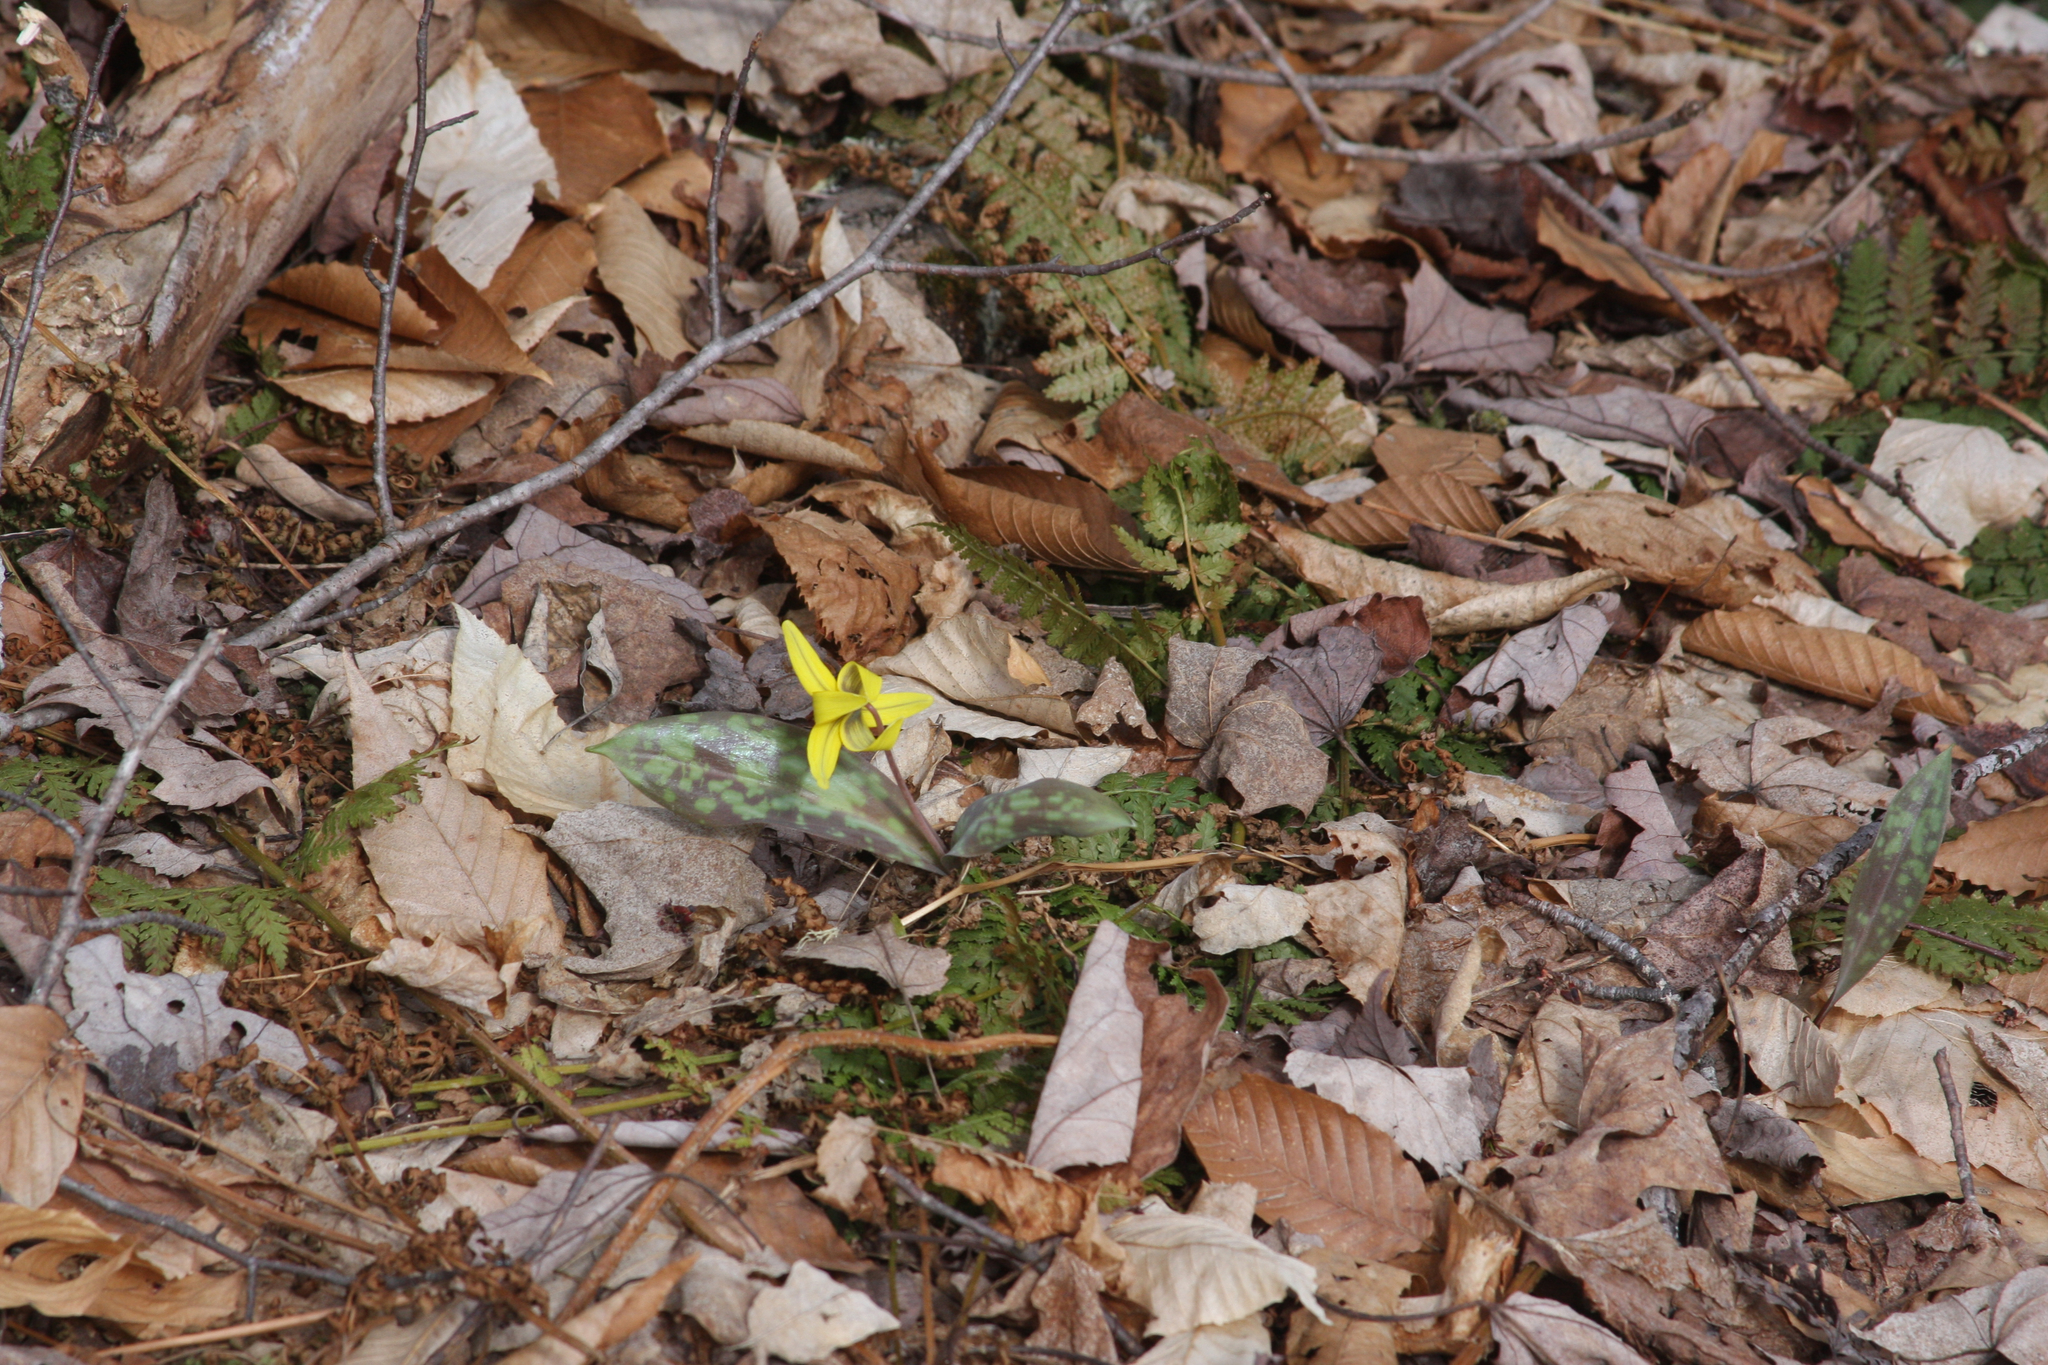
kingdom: Plantae
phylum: Tracheophyta
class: Liliopsida
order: Liliales
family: Liliaceae
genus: Erythronium
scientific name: Erythronium americanum
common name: Yellow adder's-tongue
